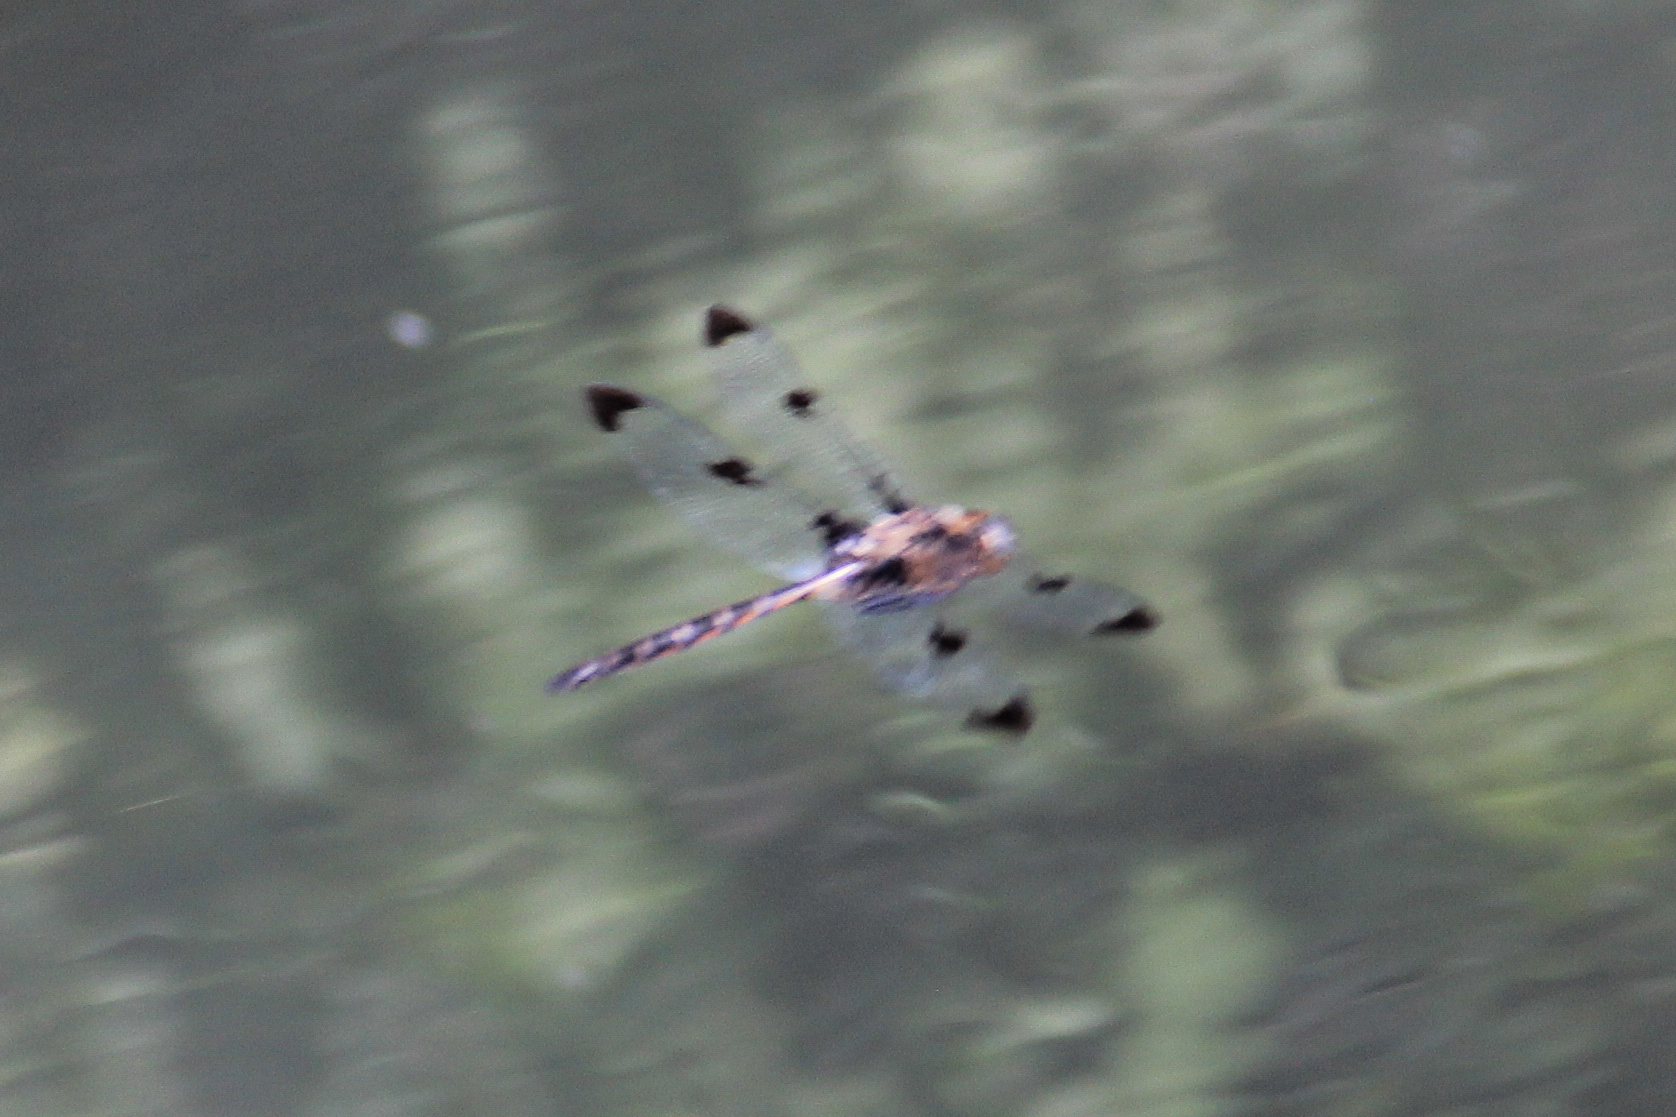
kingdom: Animalia
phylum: Arthropoda
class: Insecta
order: Odonata
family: Corduliidae
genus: Epitheca
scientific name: Epitheca princeps
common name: Prince baskettail
